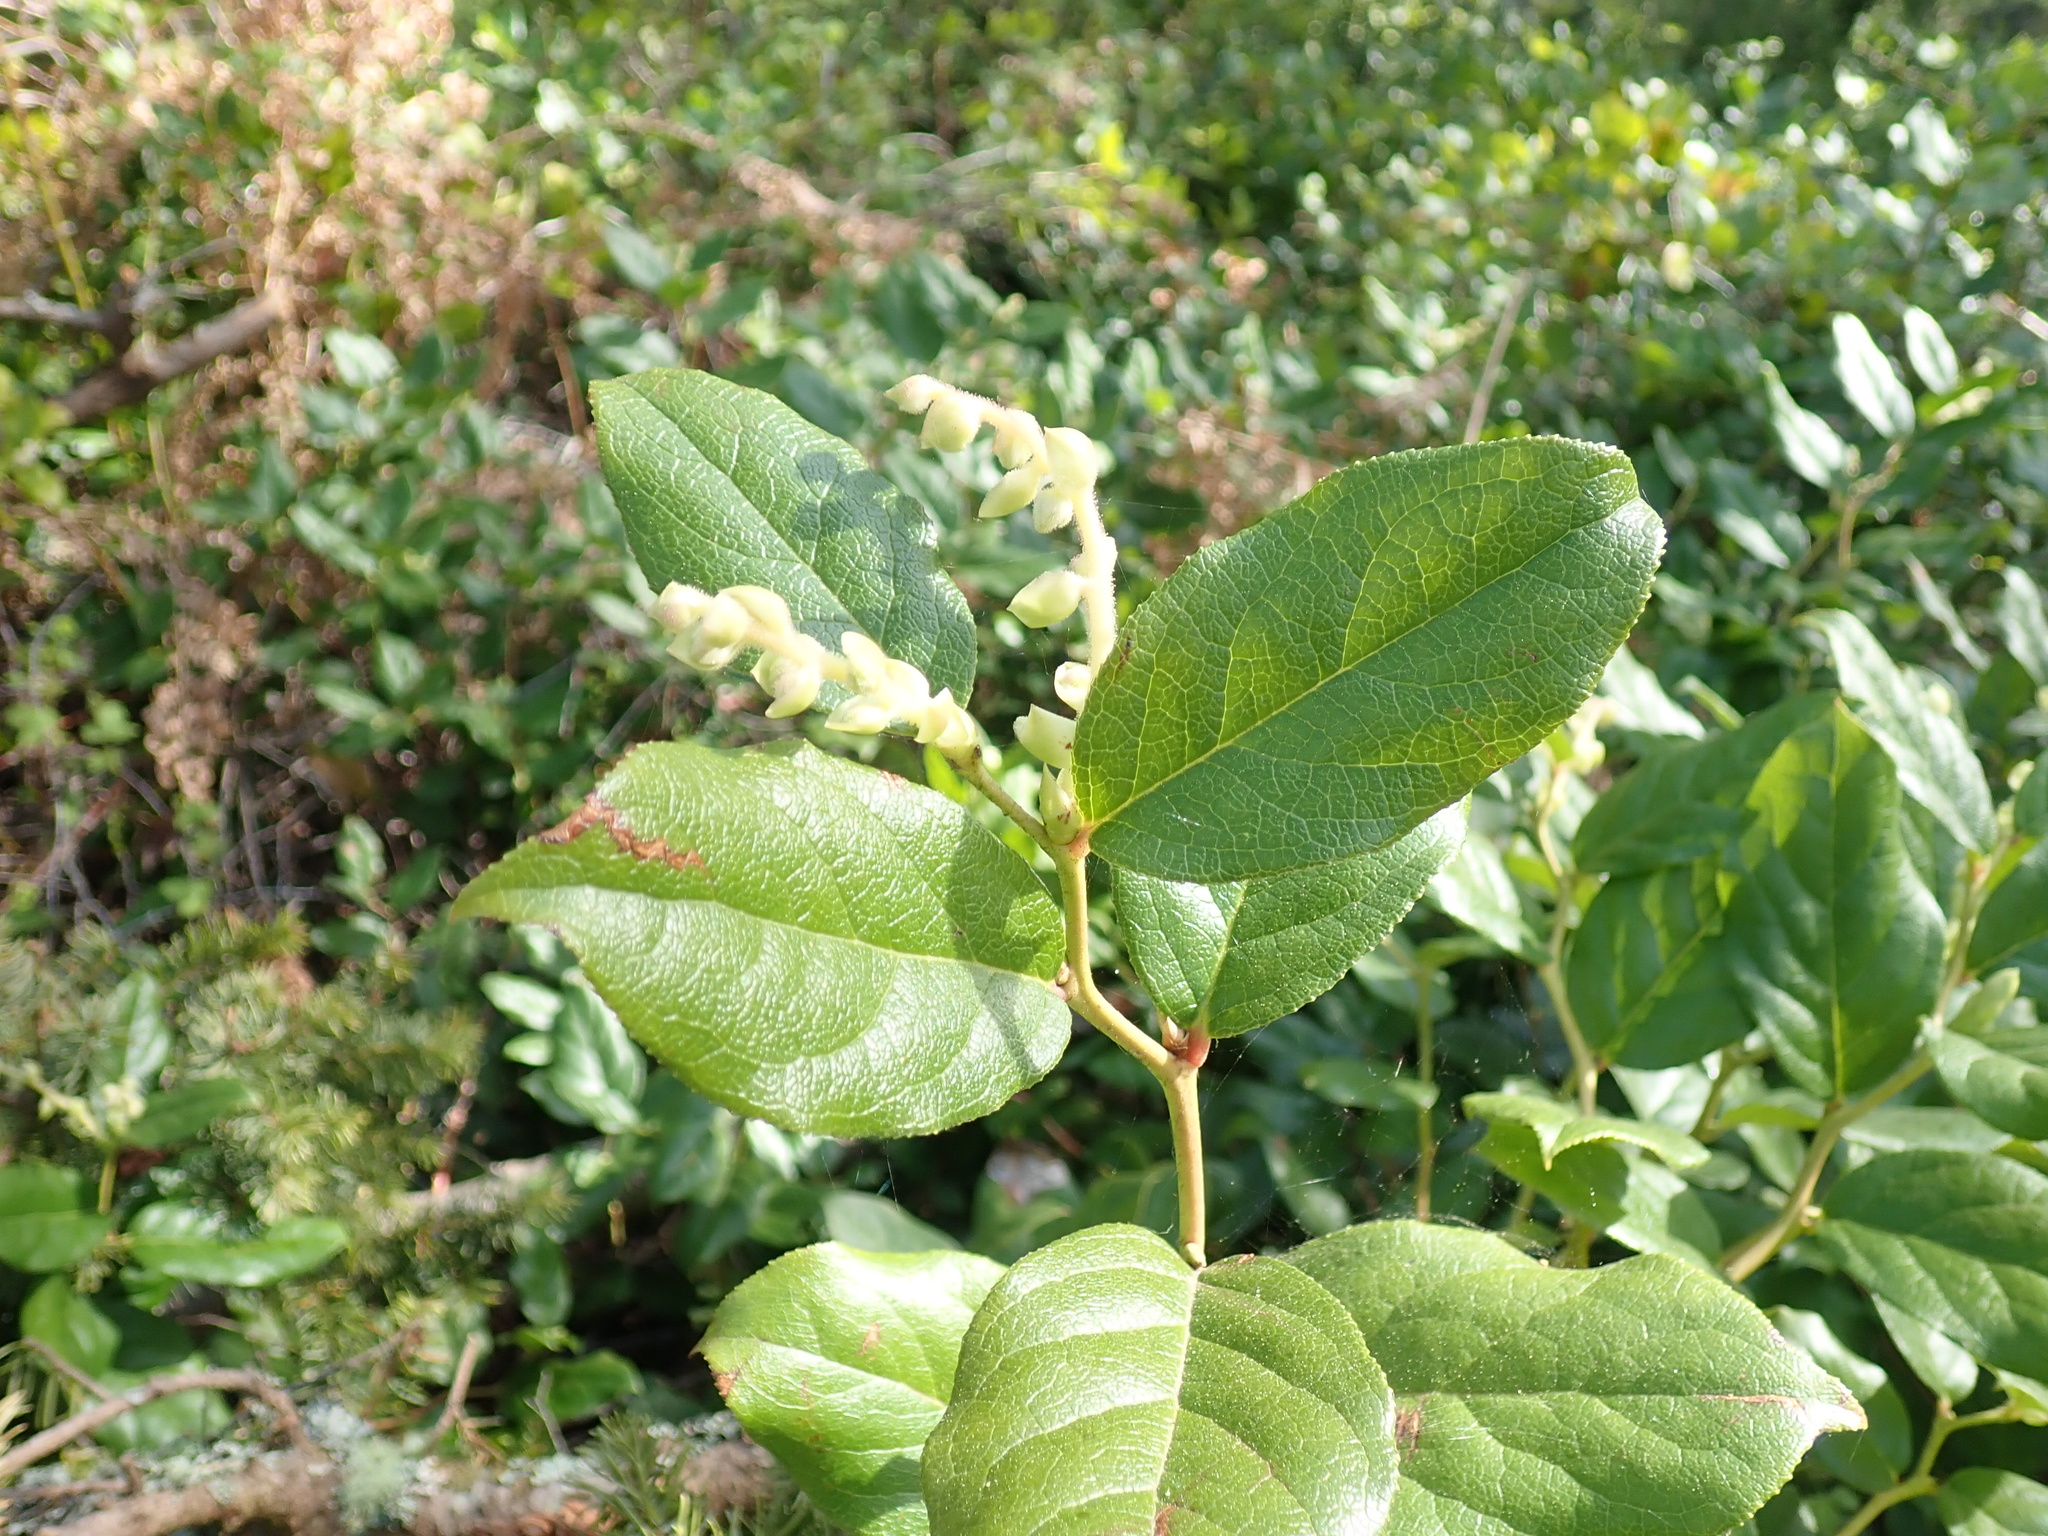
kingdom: Plantae
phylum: Tracheophyta
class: Magnoliopsida
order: Ericales
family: Ericaceae
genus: Gaultheria
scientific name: Gaultheria shallon
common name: Shallon
